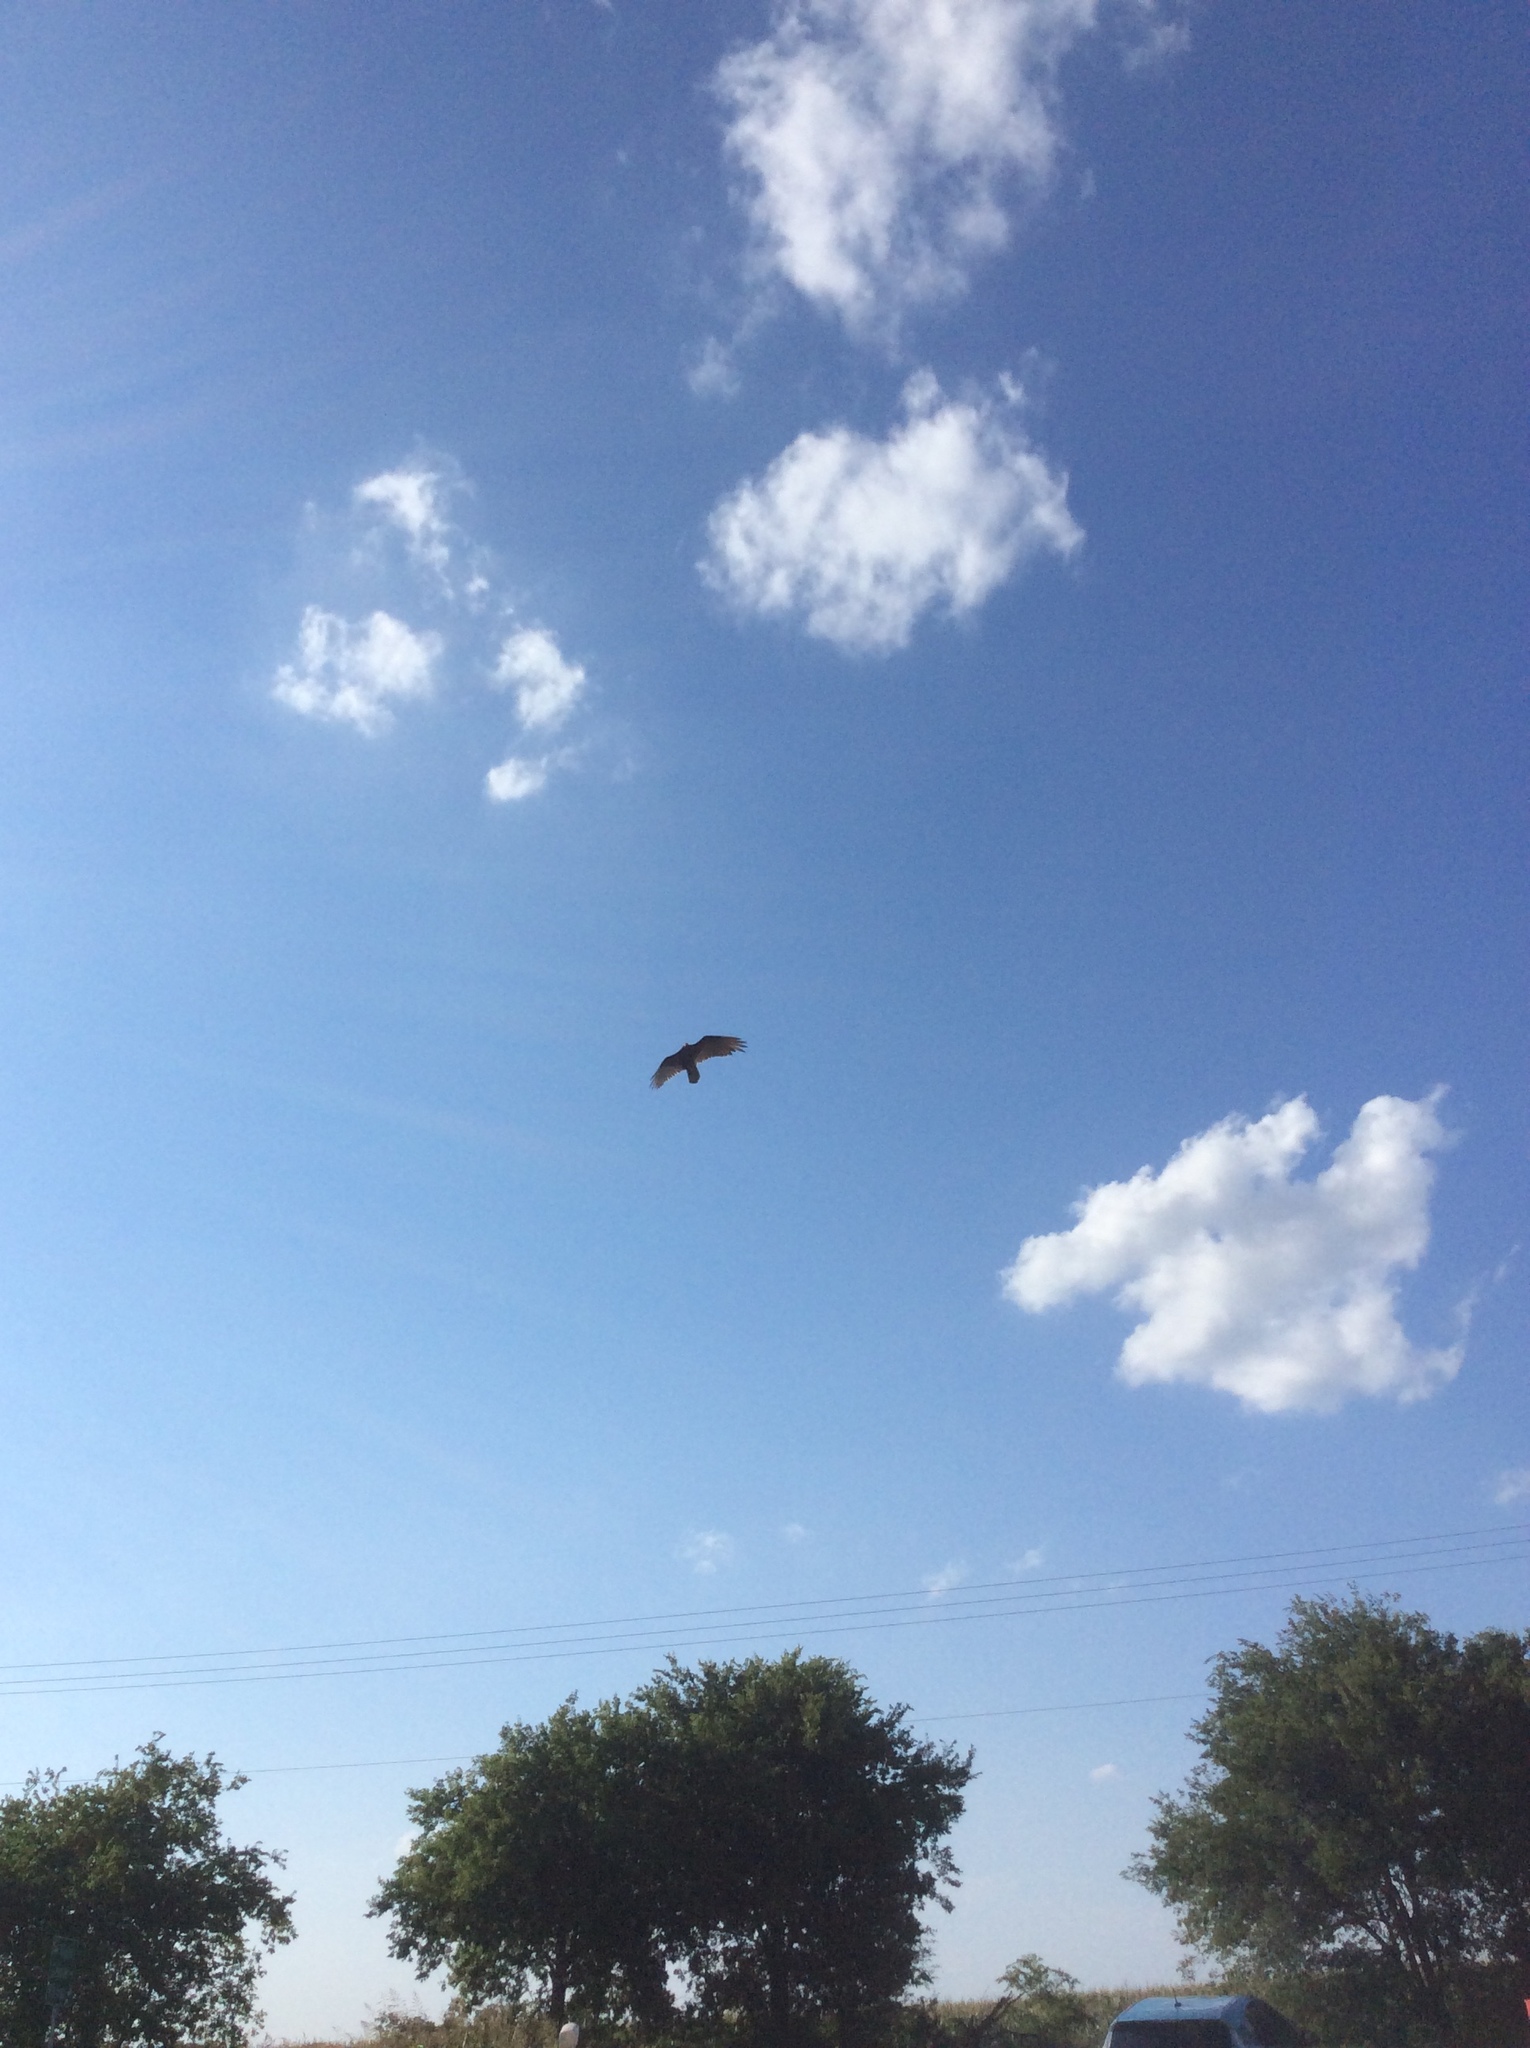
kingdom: Animalia
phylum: Chordata
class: Aves
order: Accipitriformes
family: Cathartidae
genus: Cathartes
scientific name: Cathartes aura
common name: Turkey vulture
